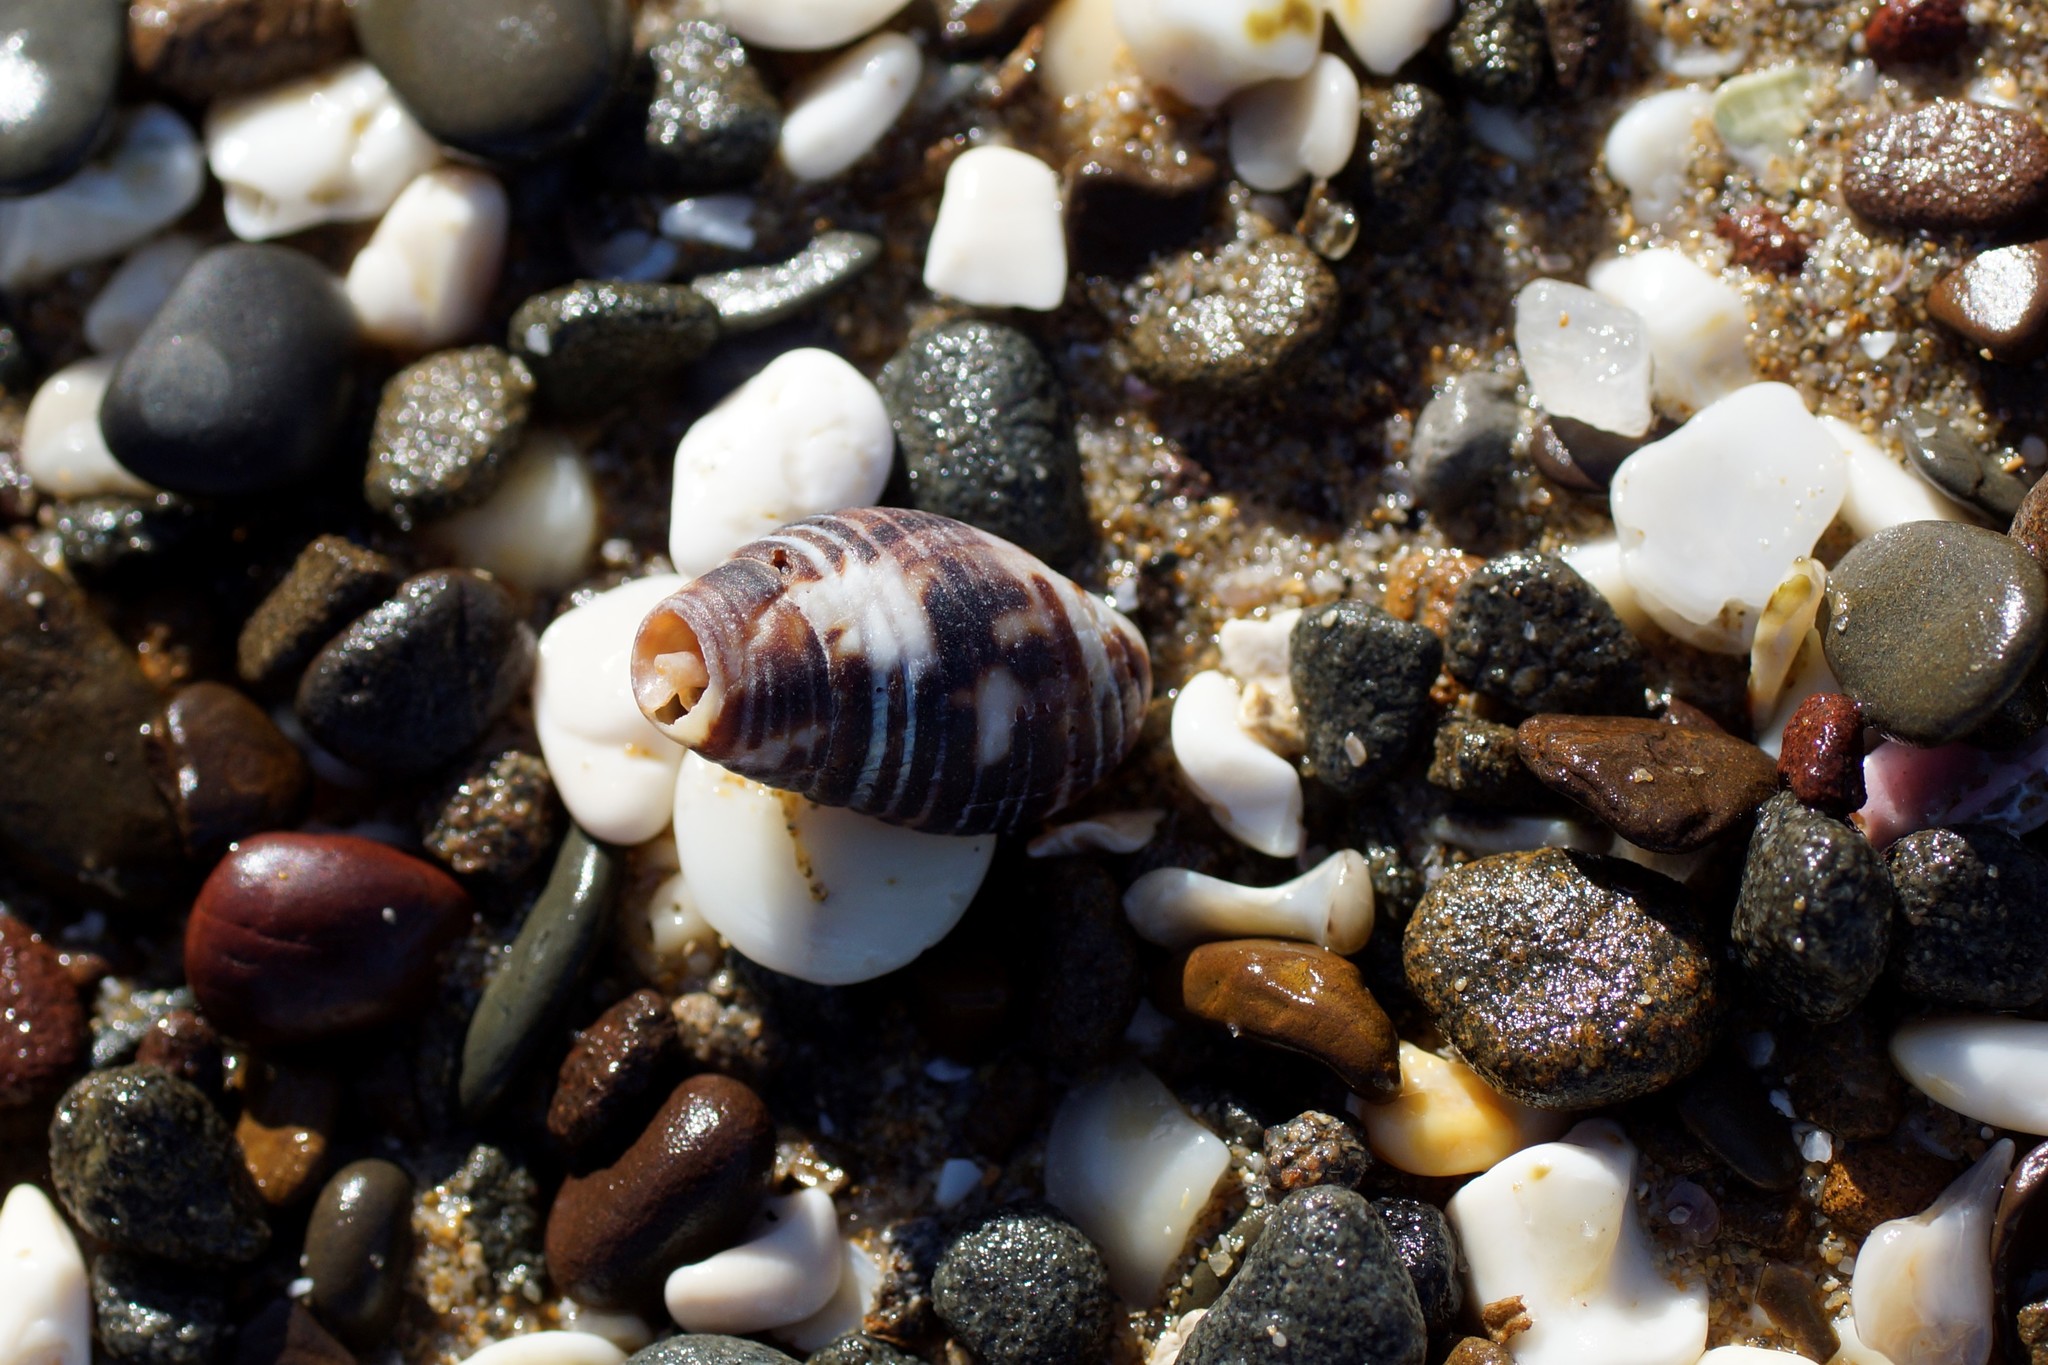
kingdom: Animalia
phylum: Mollusca
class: Gastropoda
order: Neogastropoda
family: Cominellidae
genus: Cominella
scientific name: Cominella lineolata
